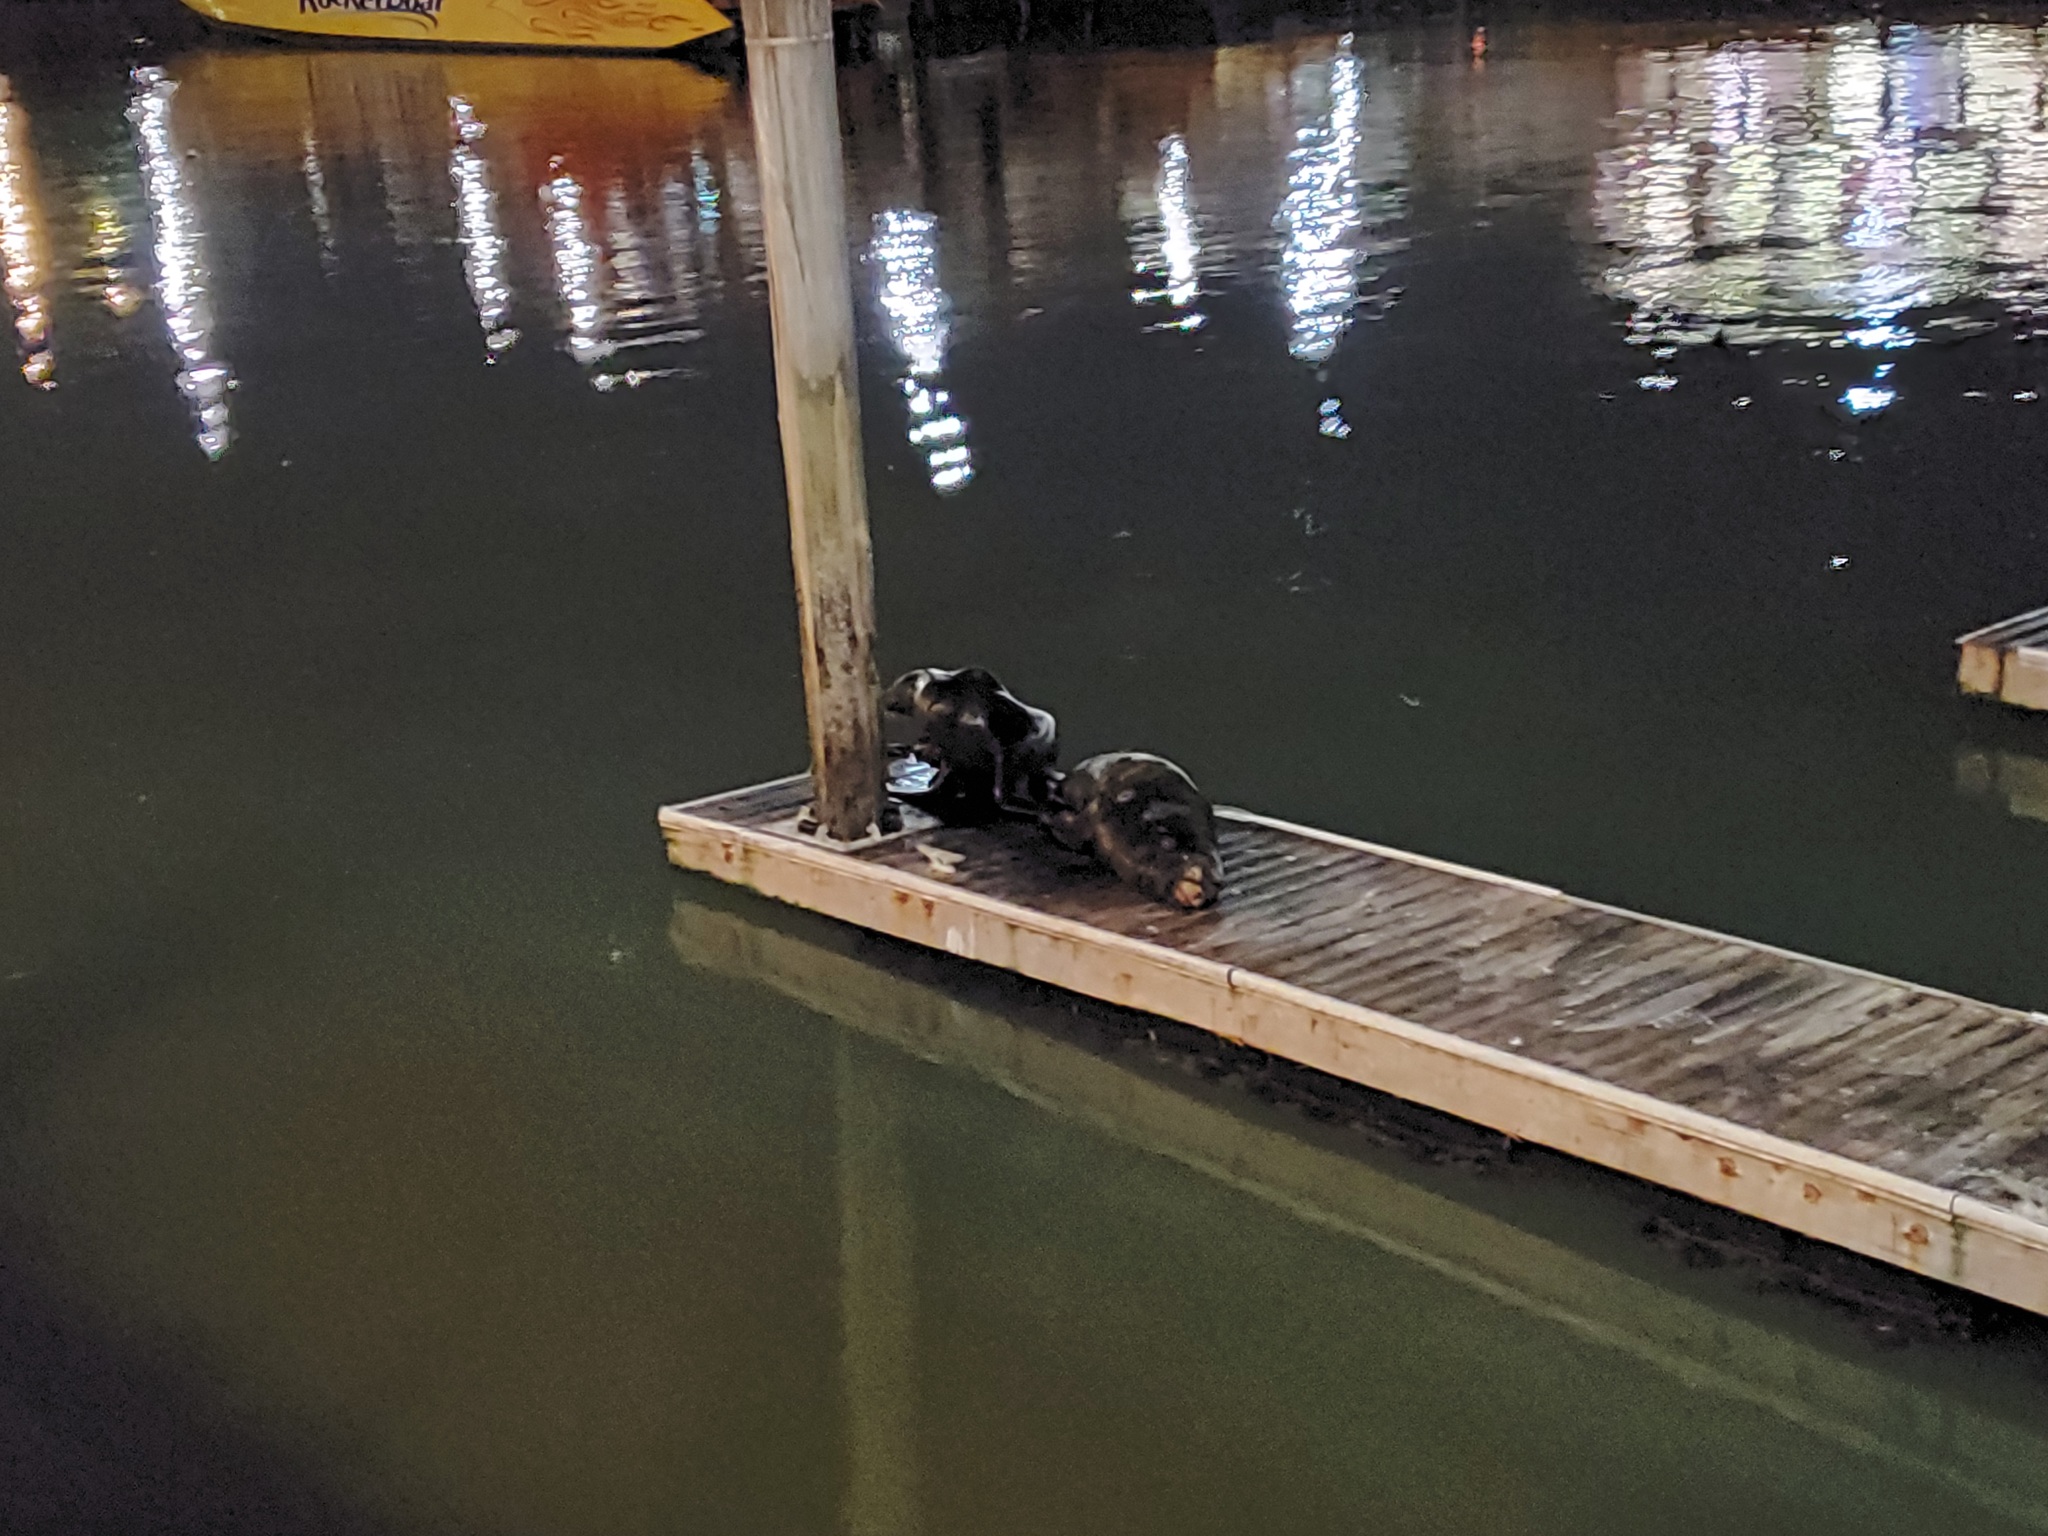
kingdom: Animalia
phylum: Chordata
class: Mammalia
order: Carnivora
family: Otariidae
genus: Zalophus
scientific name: Zalophus californianus
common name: California sea lion
